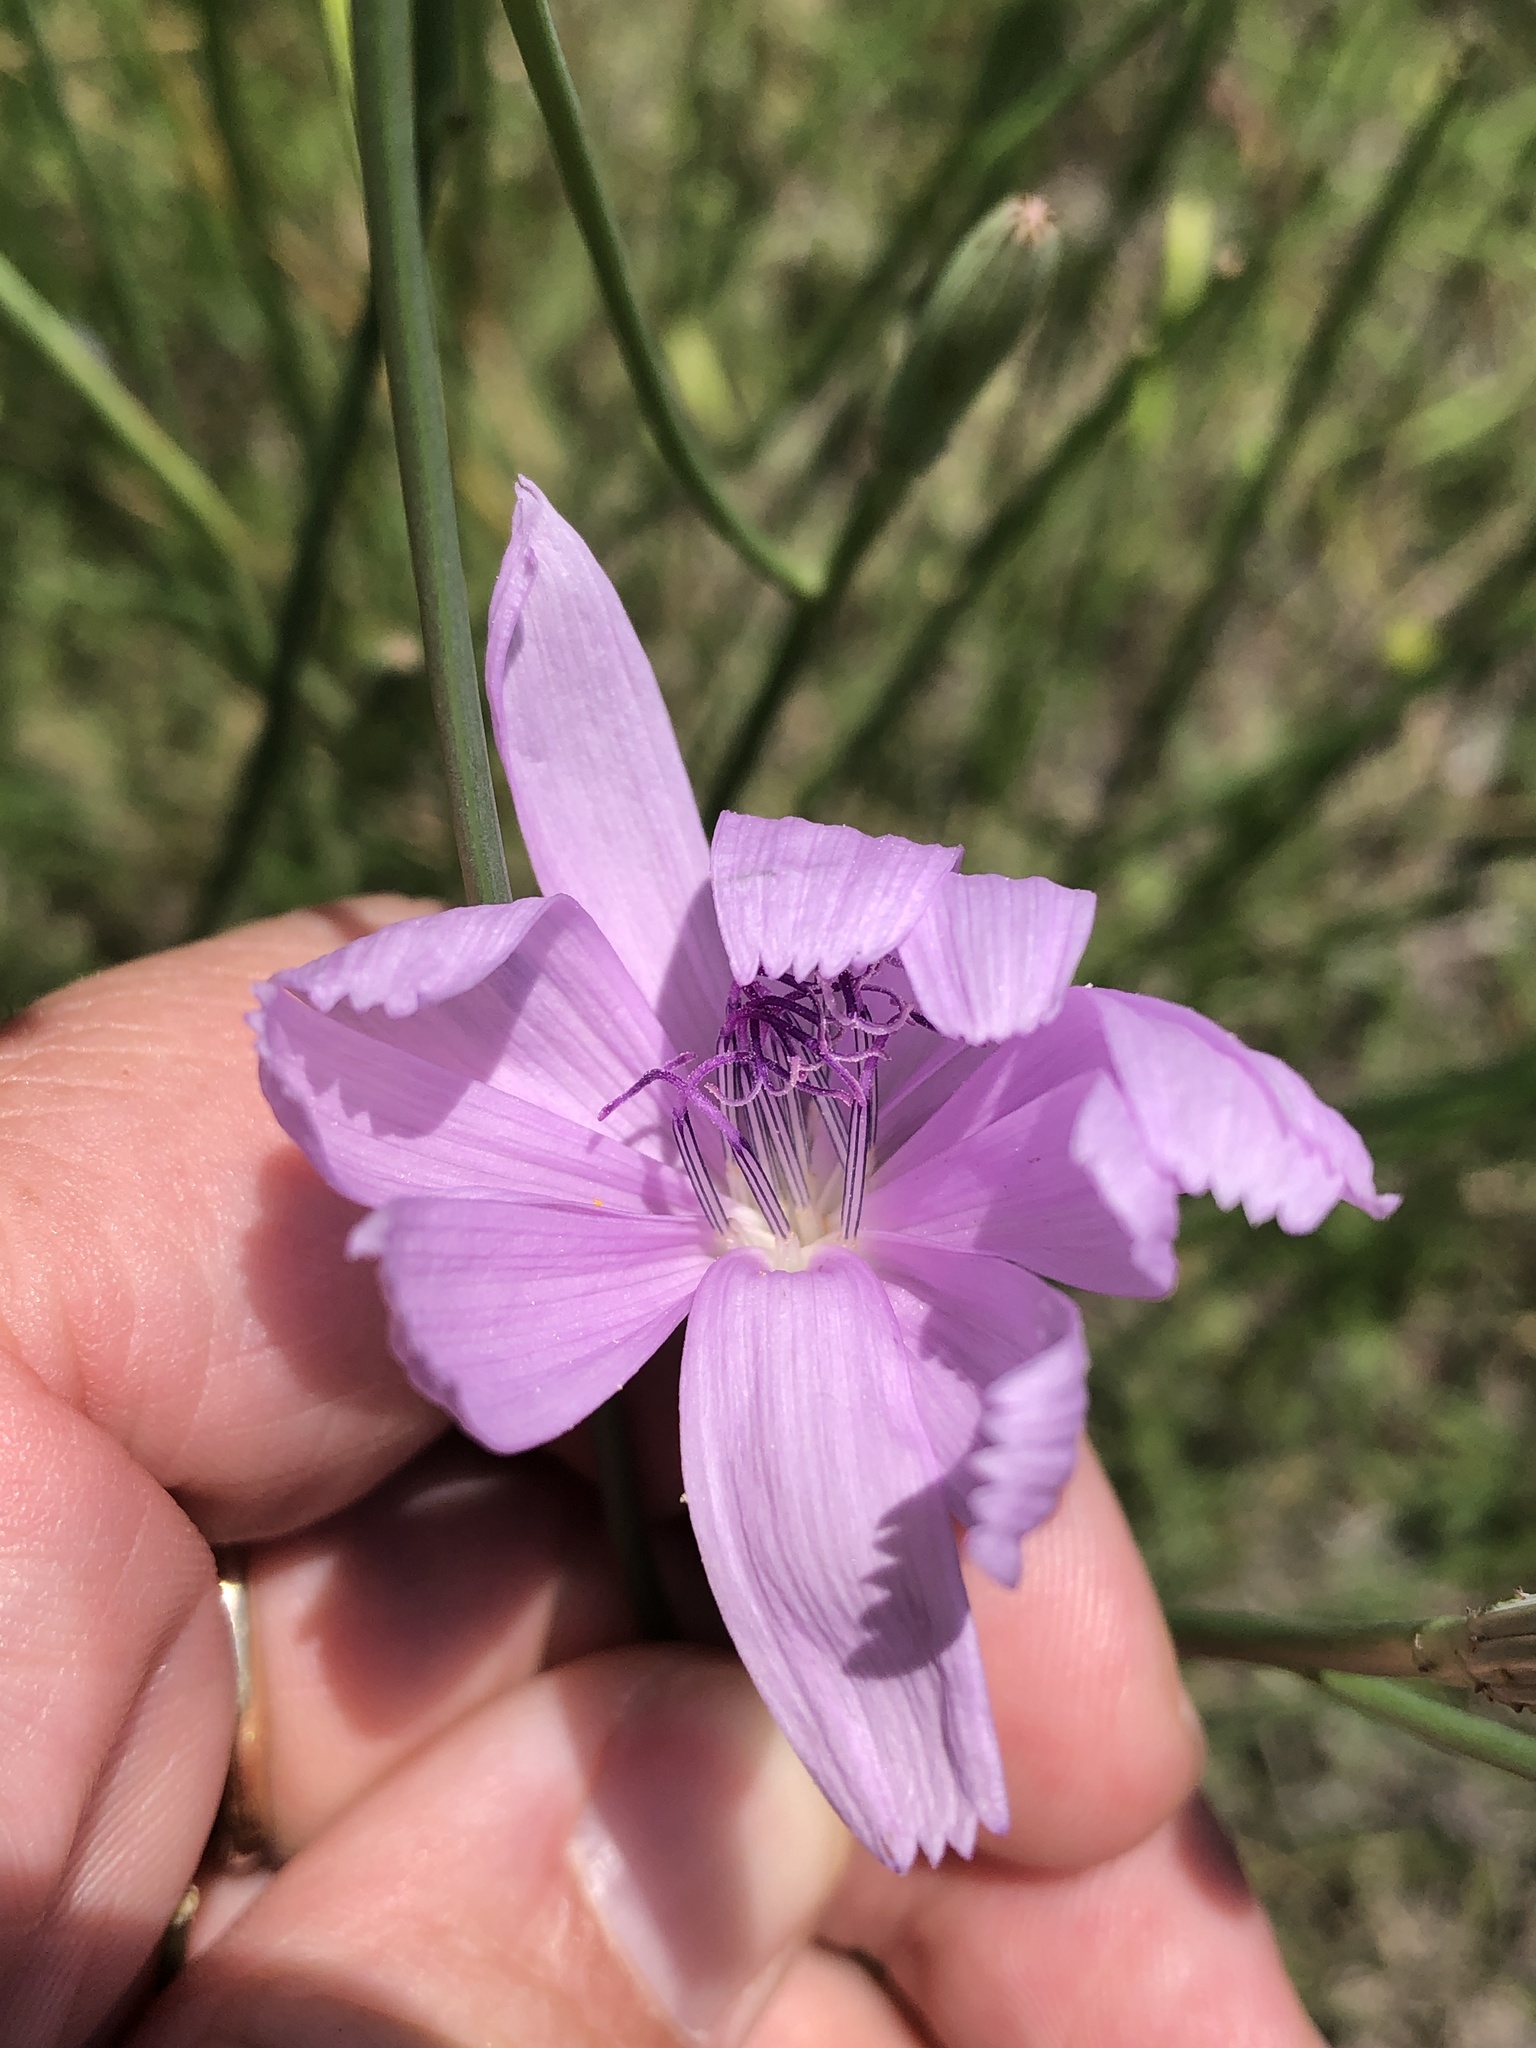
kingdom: Plantae
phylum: Tracheophyta
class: Magnoliopsida
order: Asterales
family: Asteraceae
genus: Lygodesmia
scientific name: Lygodesmia texana
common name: Texas skeleton-plant
